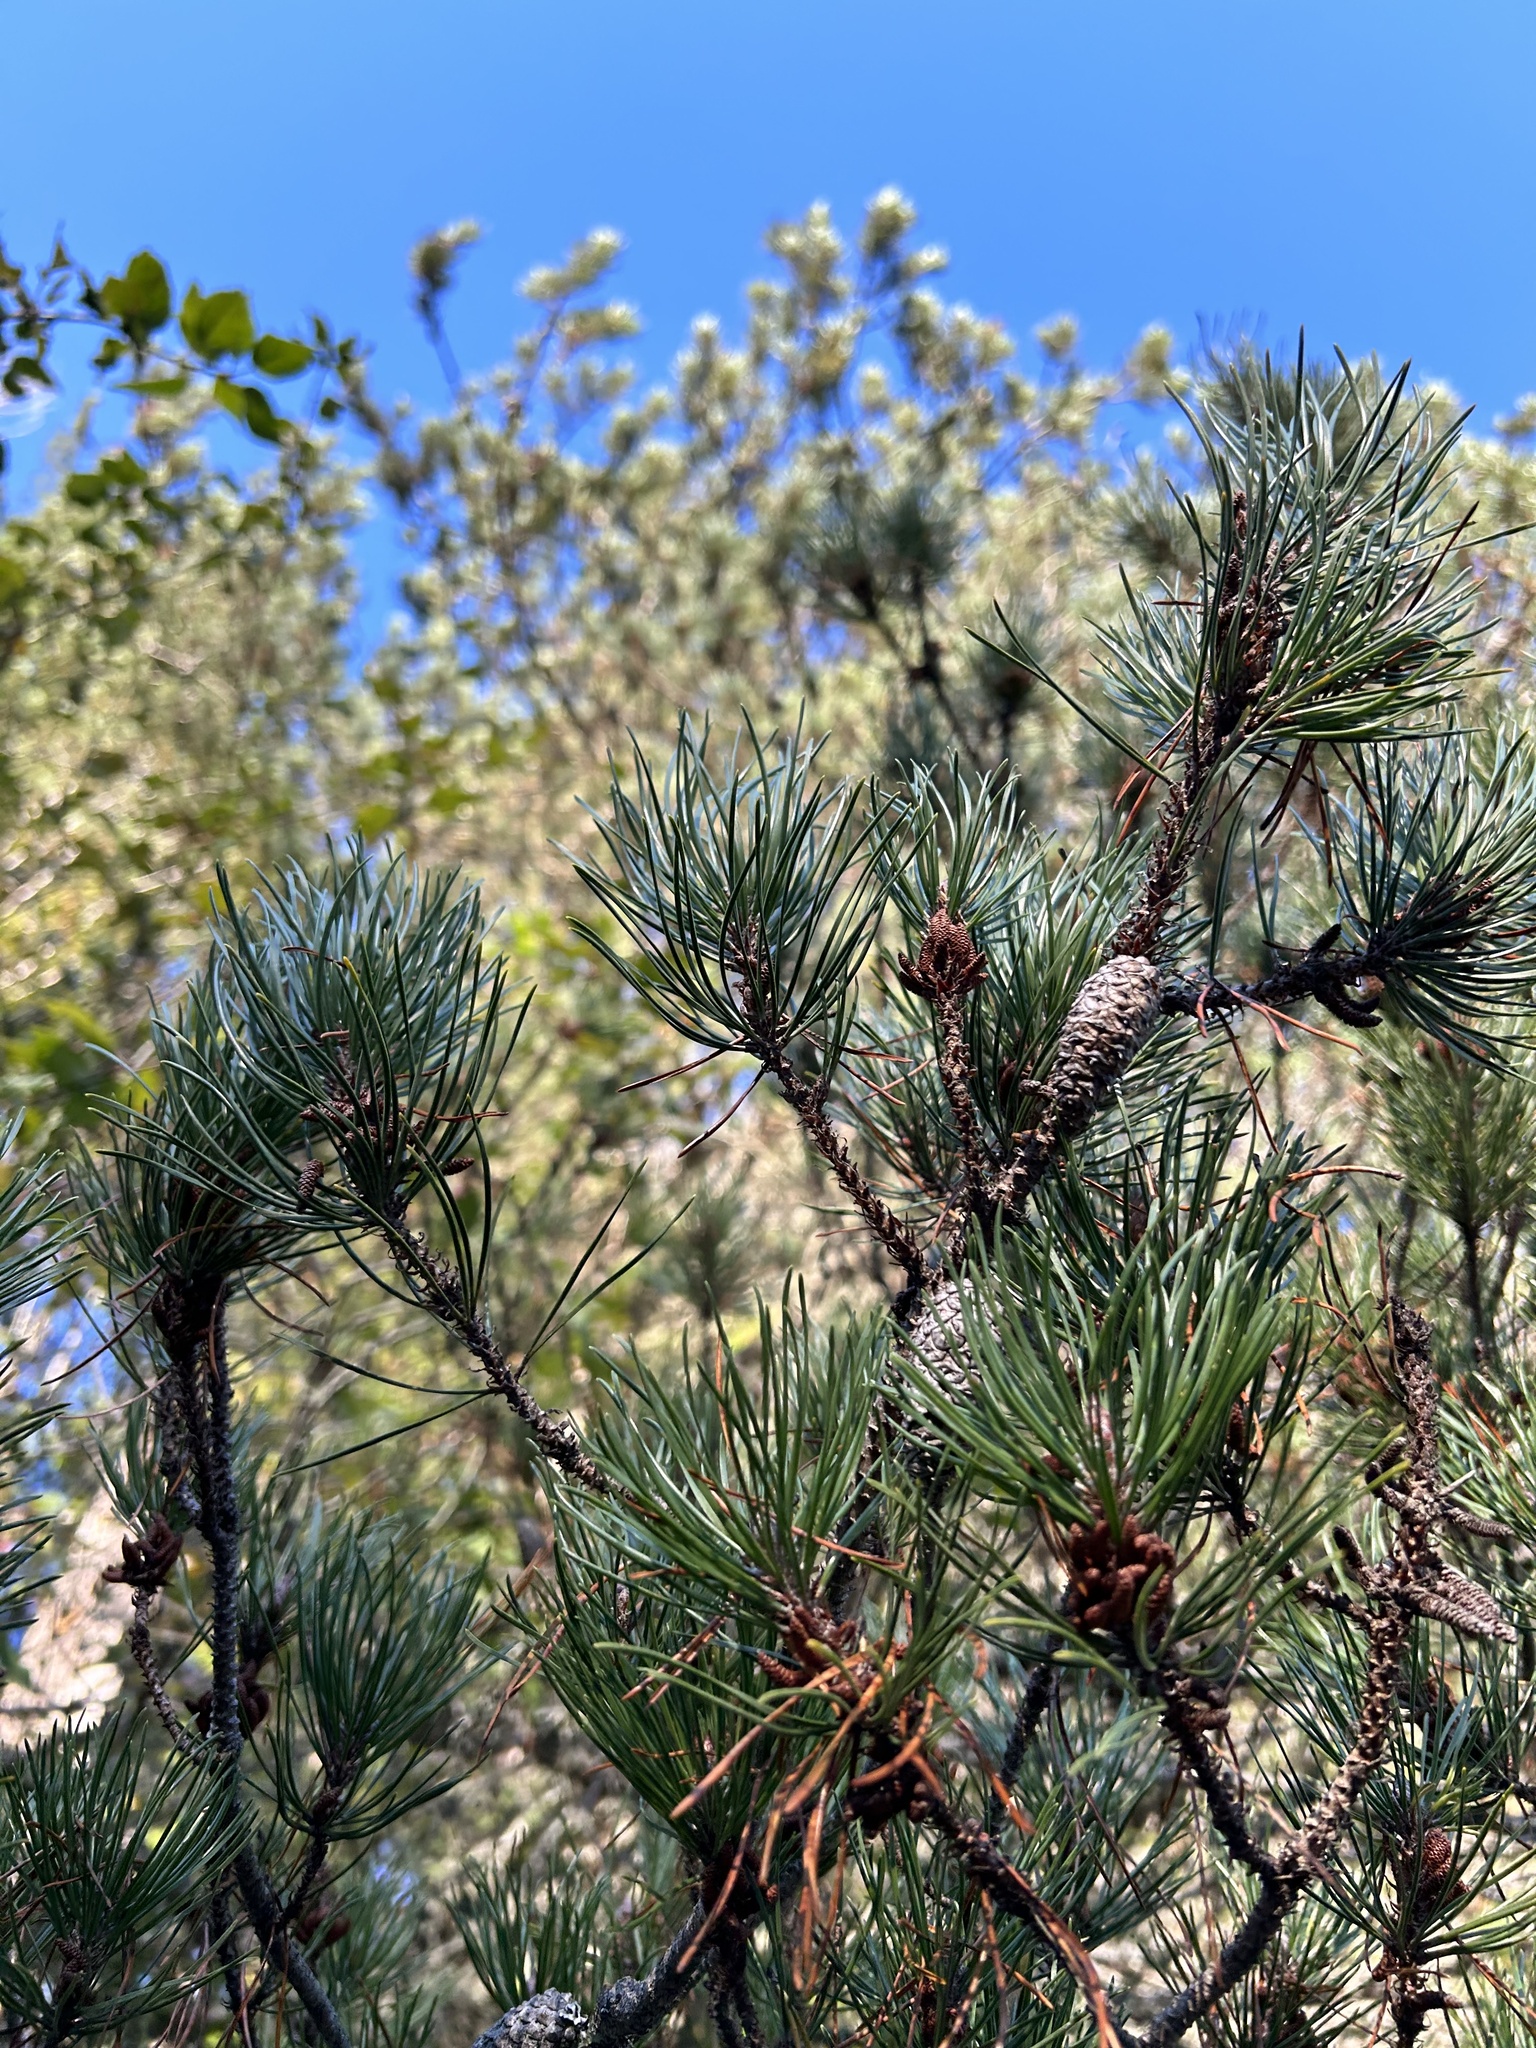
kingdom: Plantae
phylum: Tracheophyta
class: Pinopsida
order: Pinales
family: Pinaceae
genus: Pinus
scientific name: Pinus contorta
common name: Lodgepole pine
